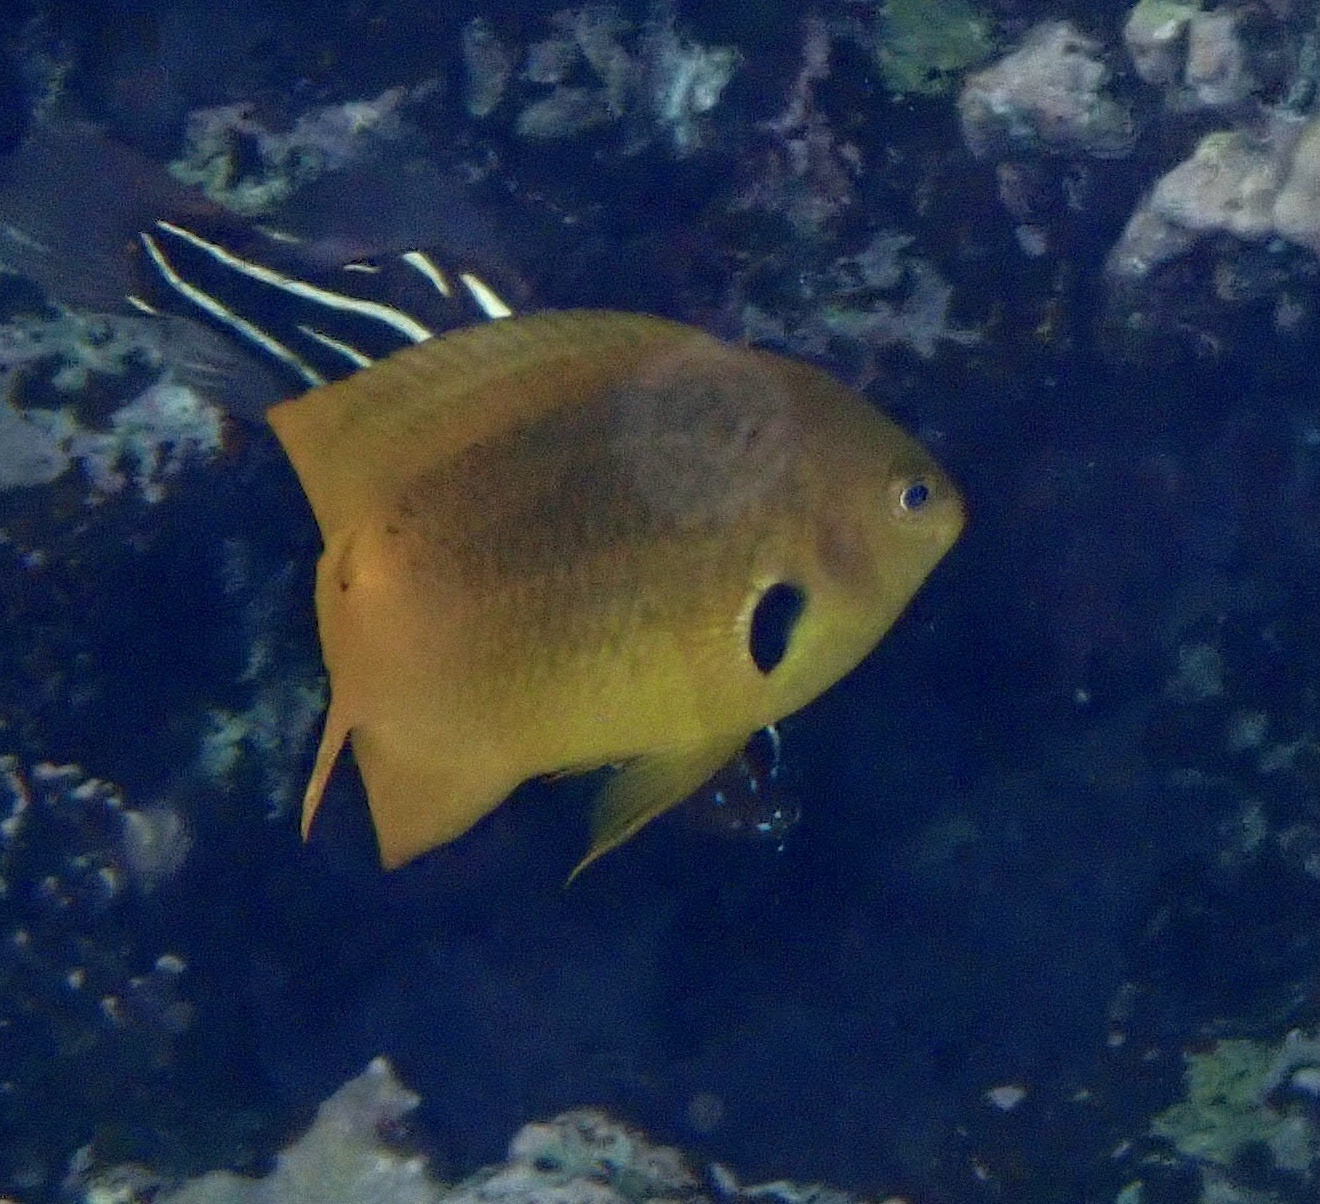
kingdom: Animalia
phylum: Chordata
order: Perciformes
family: Pomacentridae
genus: Pomacentrus
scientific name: Pomacentrus sulfureus
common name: Sulfur damsel
